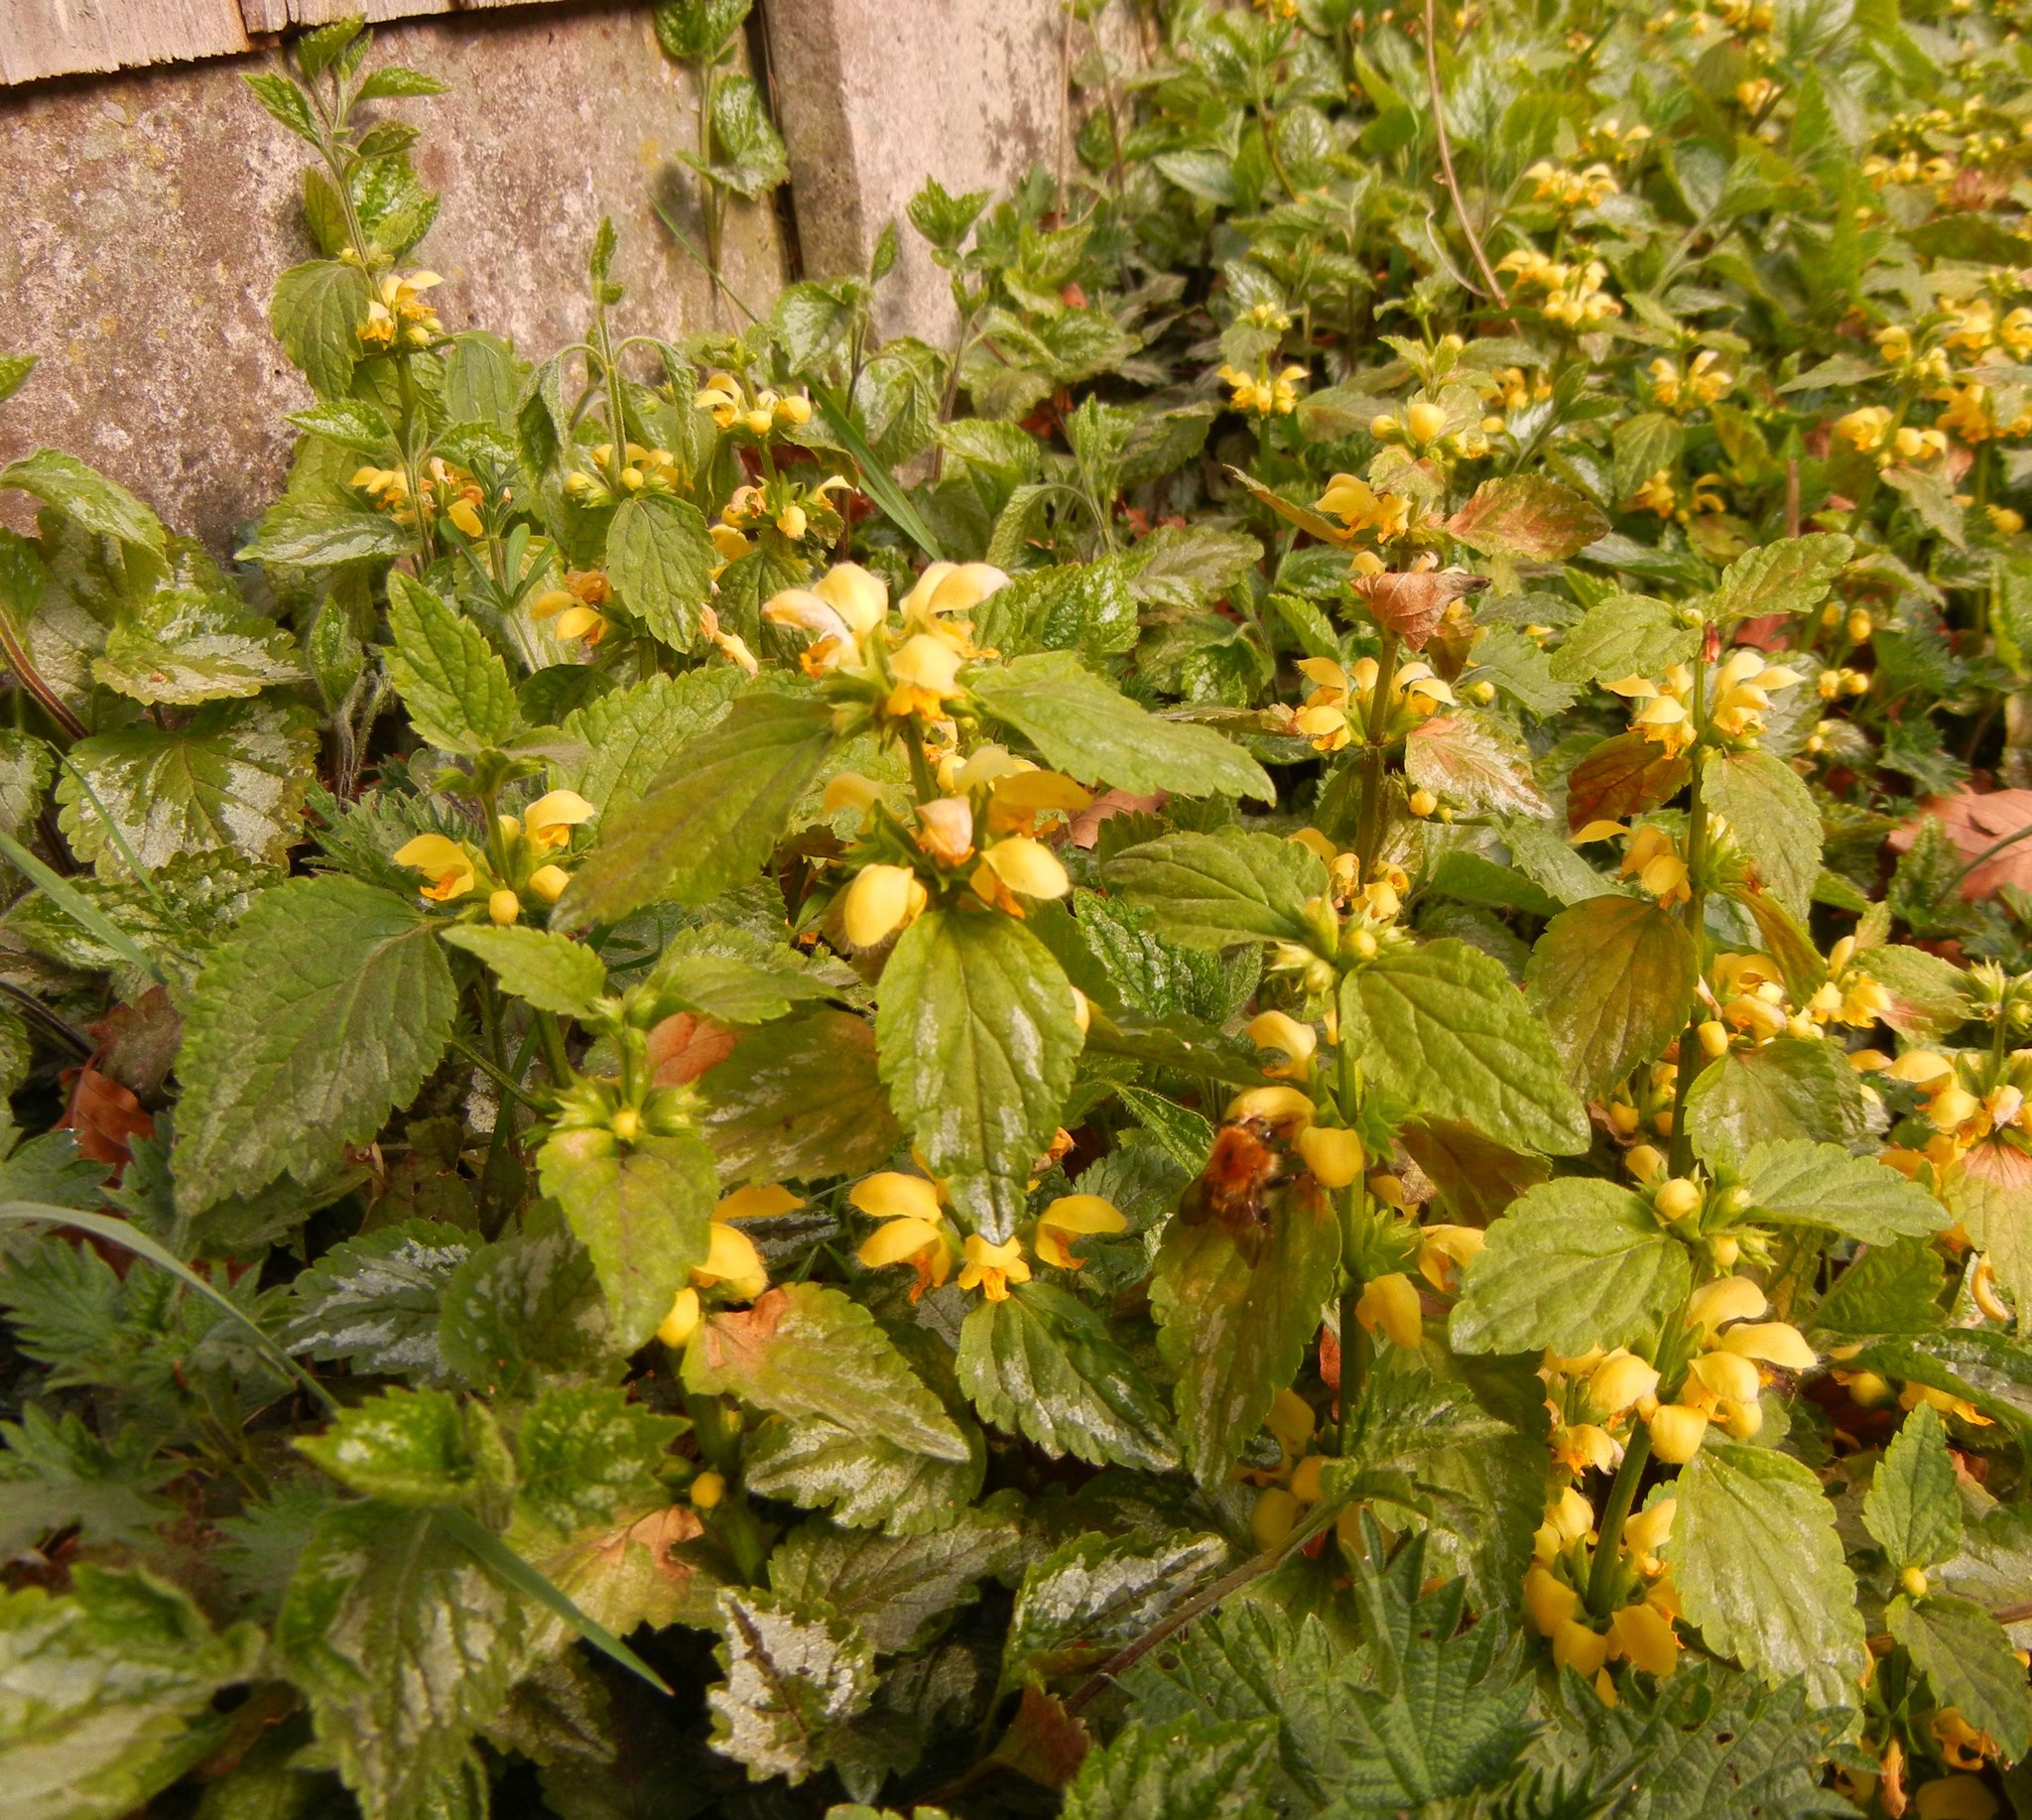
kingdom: Plantae
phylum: Tracheophyta
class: Magnoliopsida
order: Lamiales
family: Lamiaceae
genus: Lamium
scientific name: Lamium galeobdolon
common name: Yellow archangel
